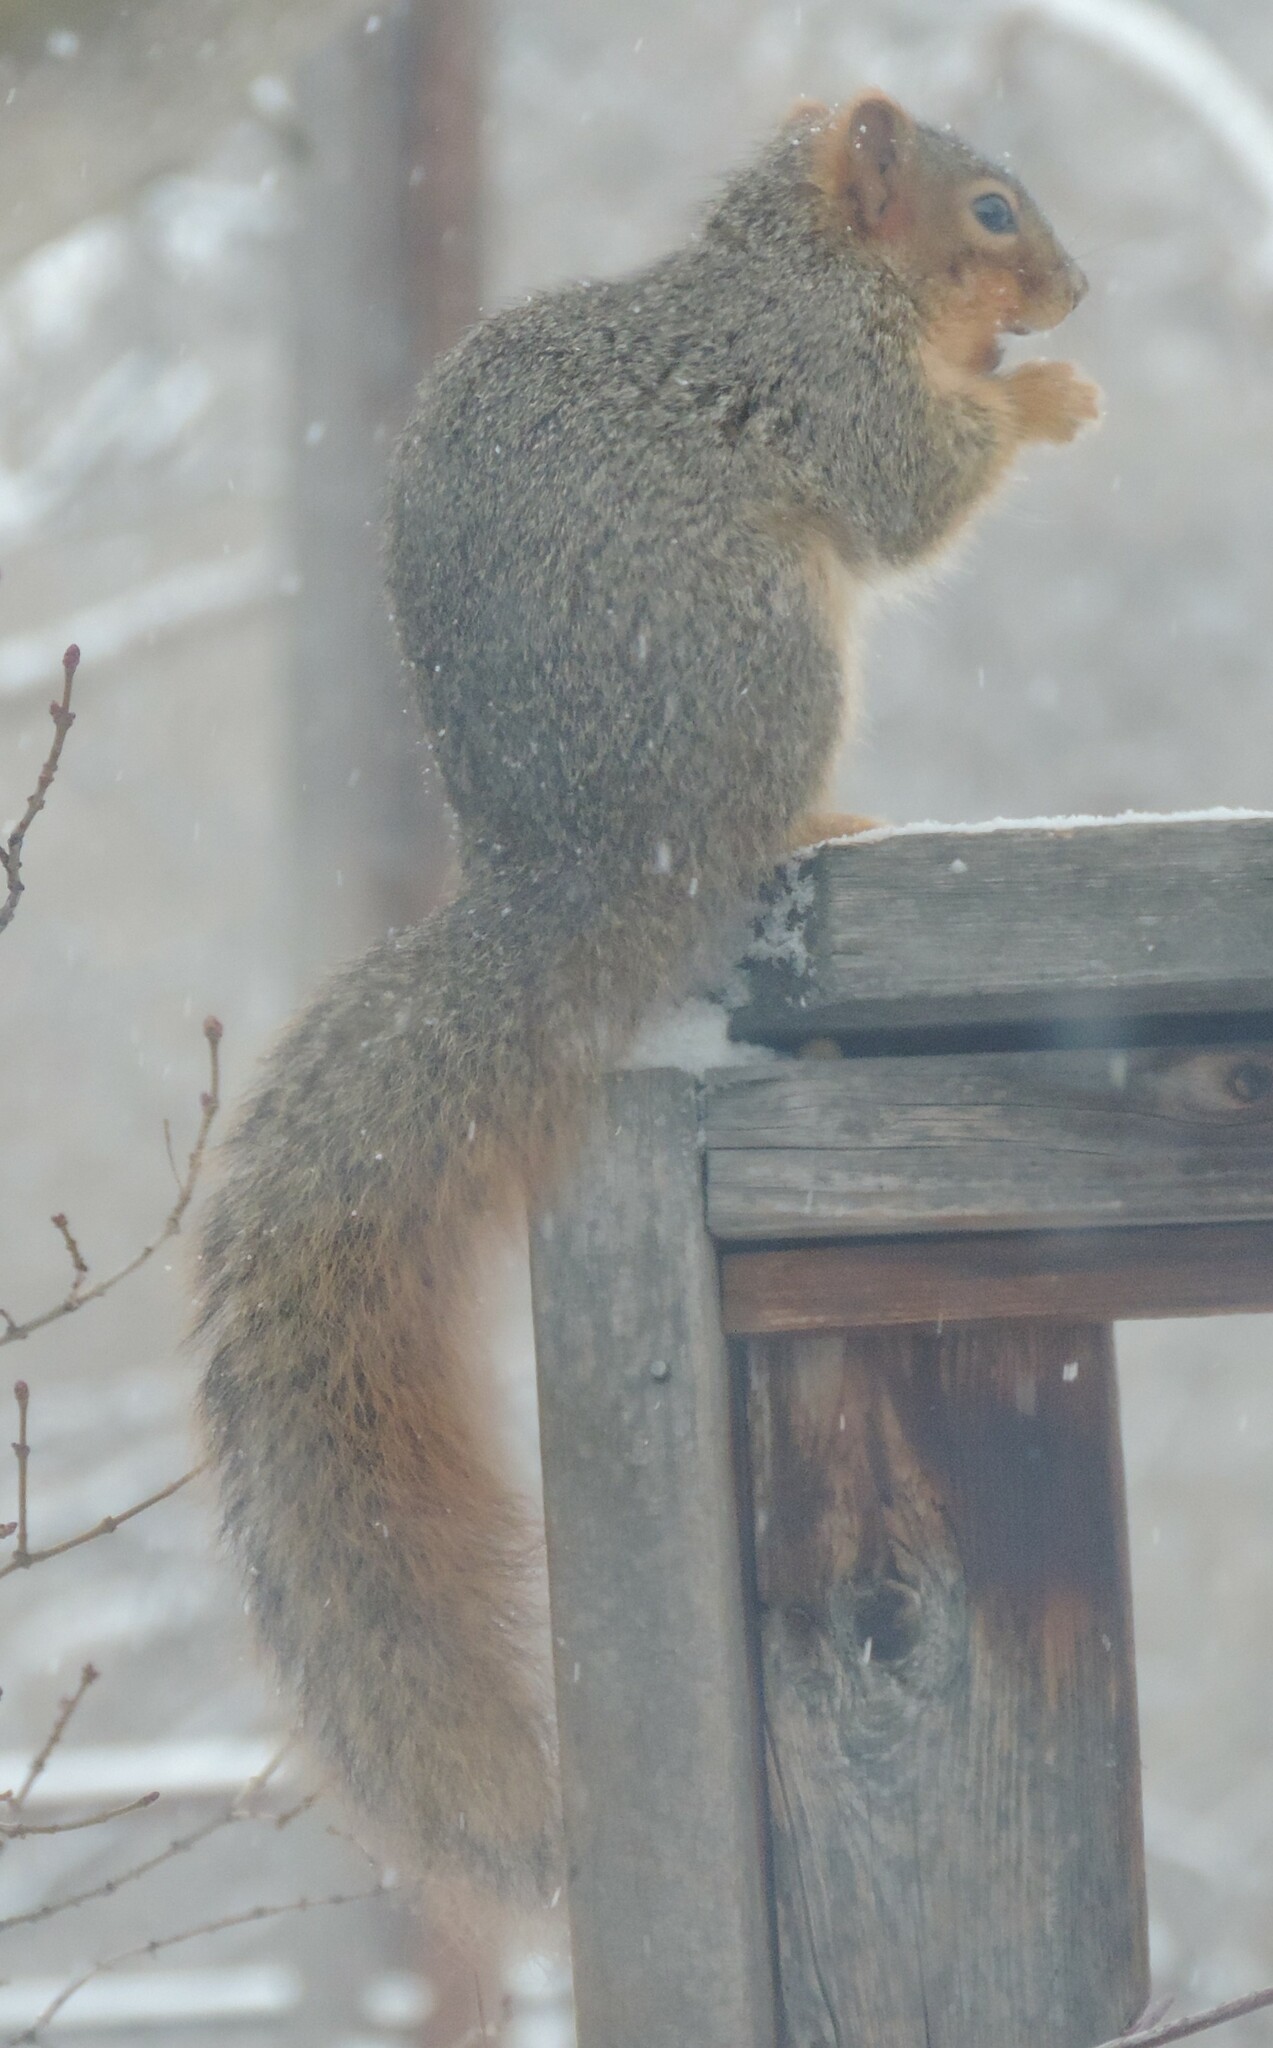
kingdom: Animalia
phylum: Chordata
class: Mammalia
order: Rodentia
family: Sciuridae
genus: Sciurus
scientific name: Sciurus niger
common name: Fox squirrel
